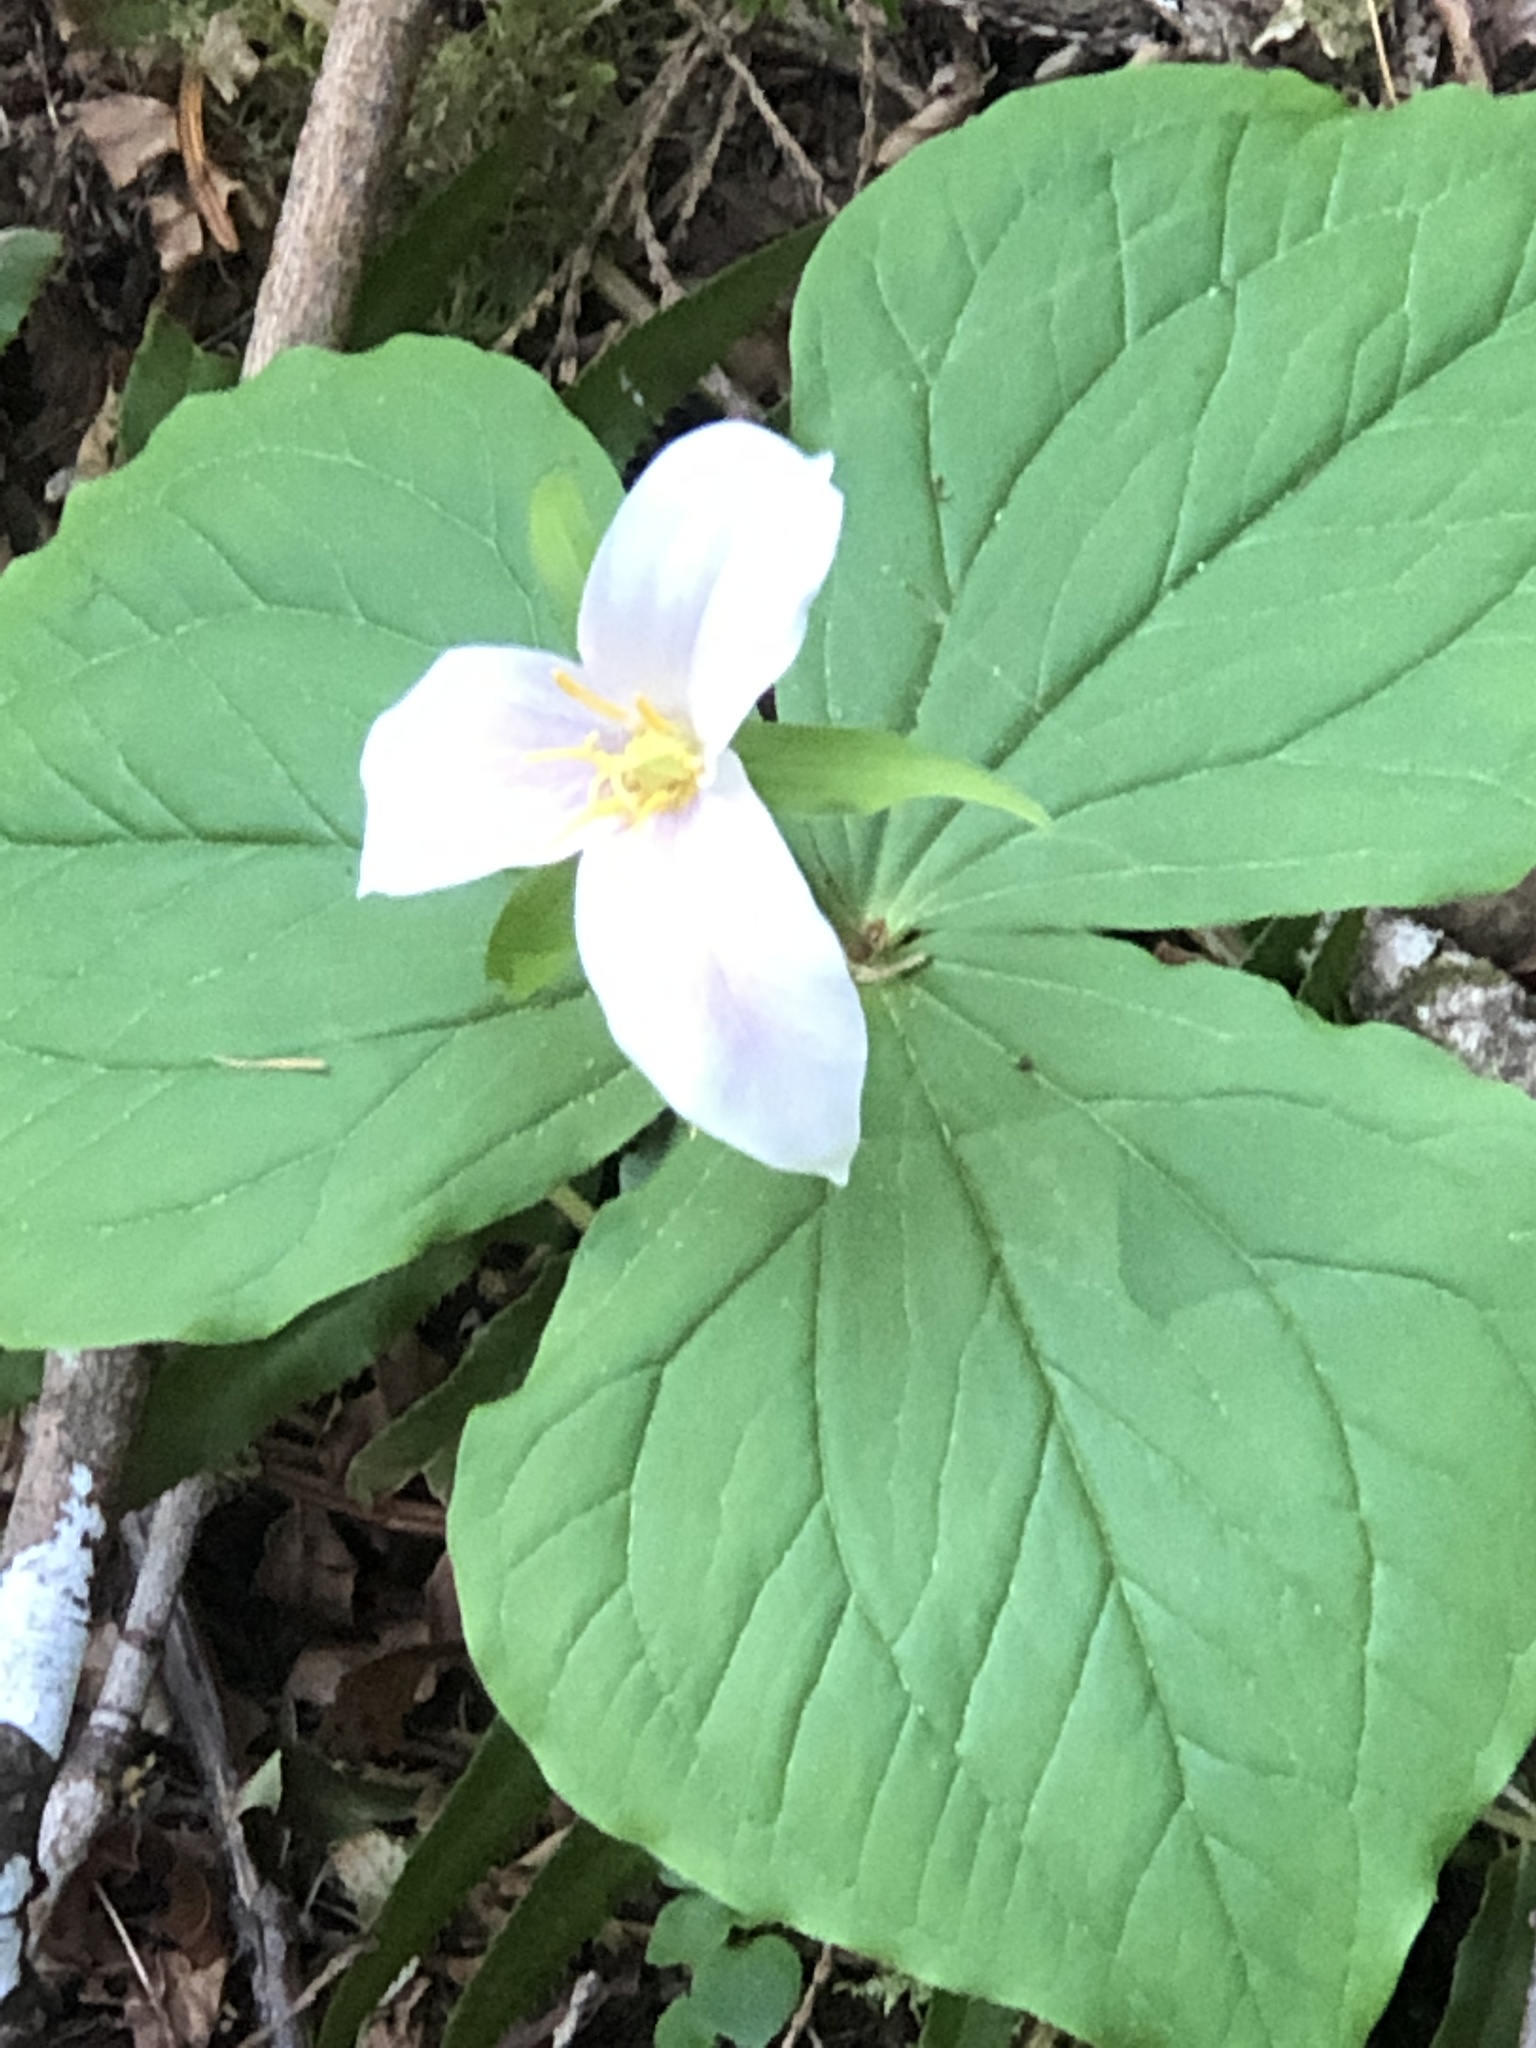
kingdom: Plantae
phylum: Tracheophyta
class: Liliopsida
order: Liliales
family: Melanthiaceae
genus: Trillium
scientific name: Trillium ovatum
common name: Pacific trillium
